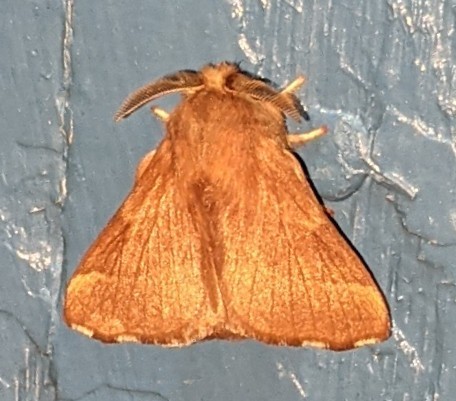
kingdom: Animalia
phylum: Arthropoda
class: Insecta
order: Lepidoptera
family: Lasiocampidae
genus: Malacosoma
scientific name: Malacosoma disstria
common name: Forest tent caterpillar
